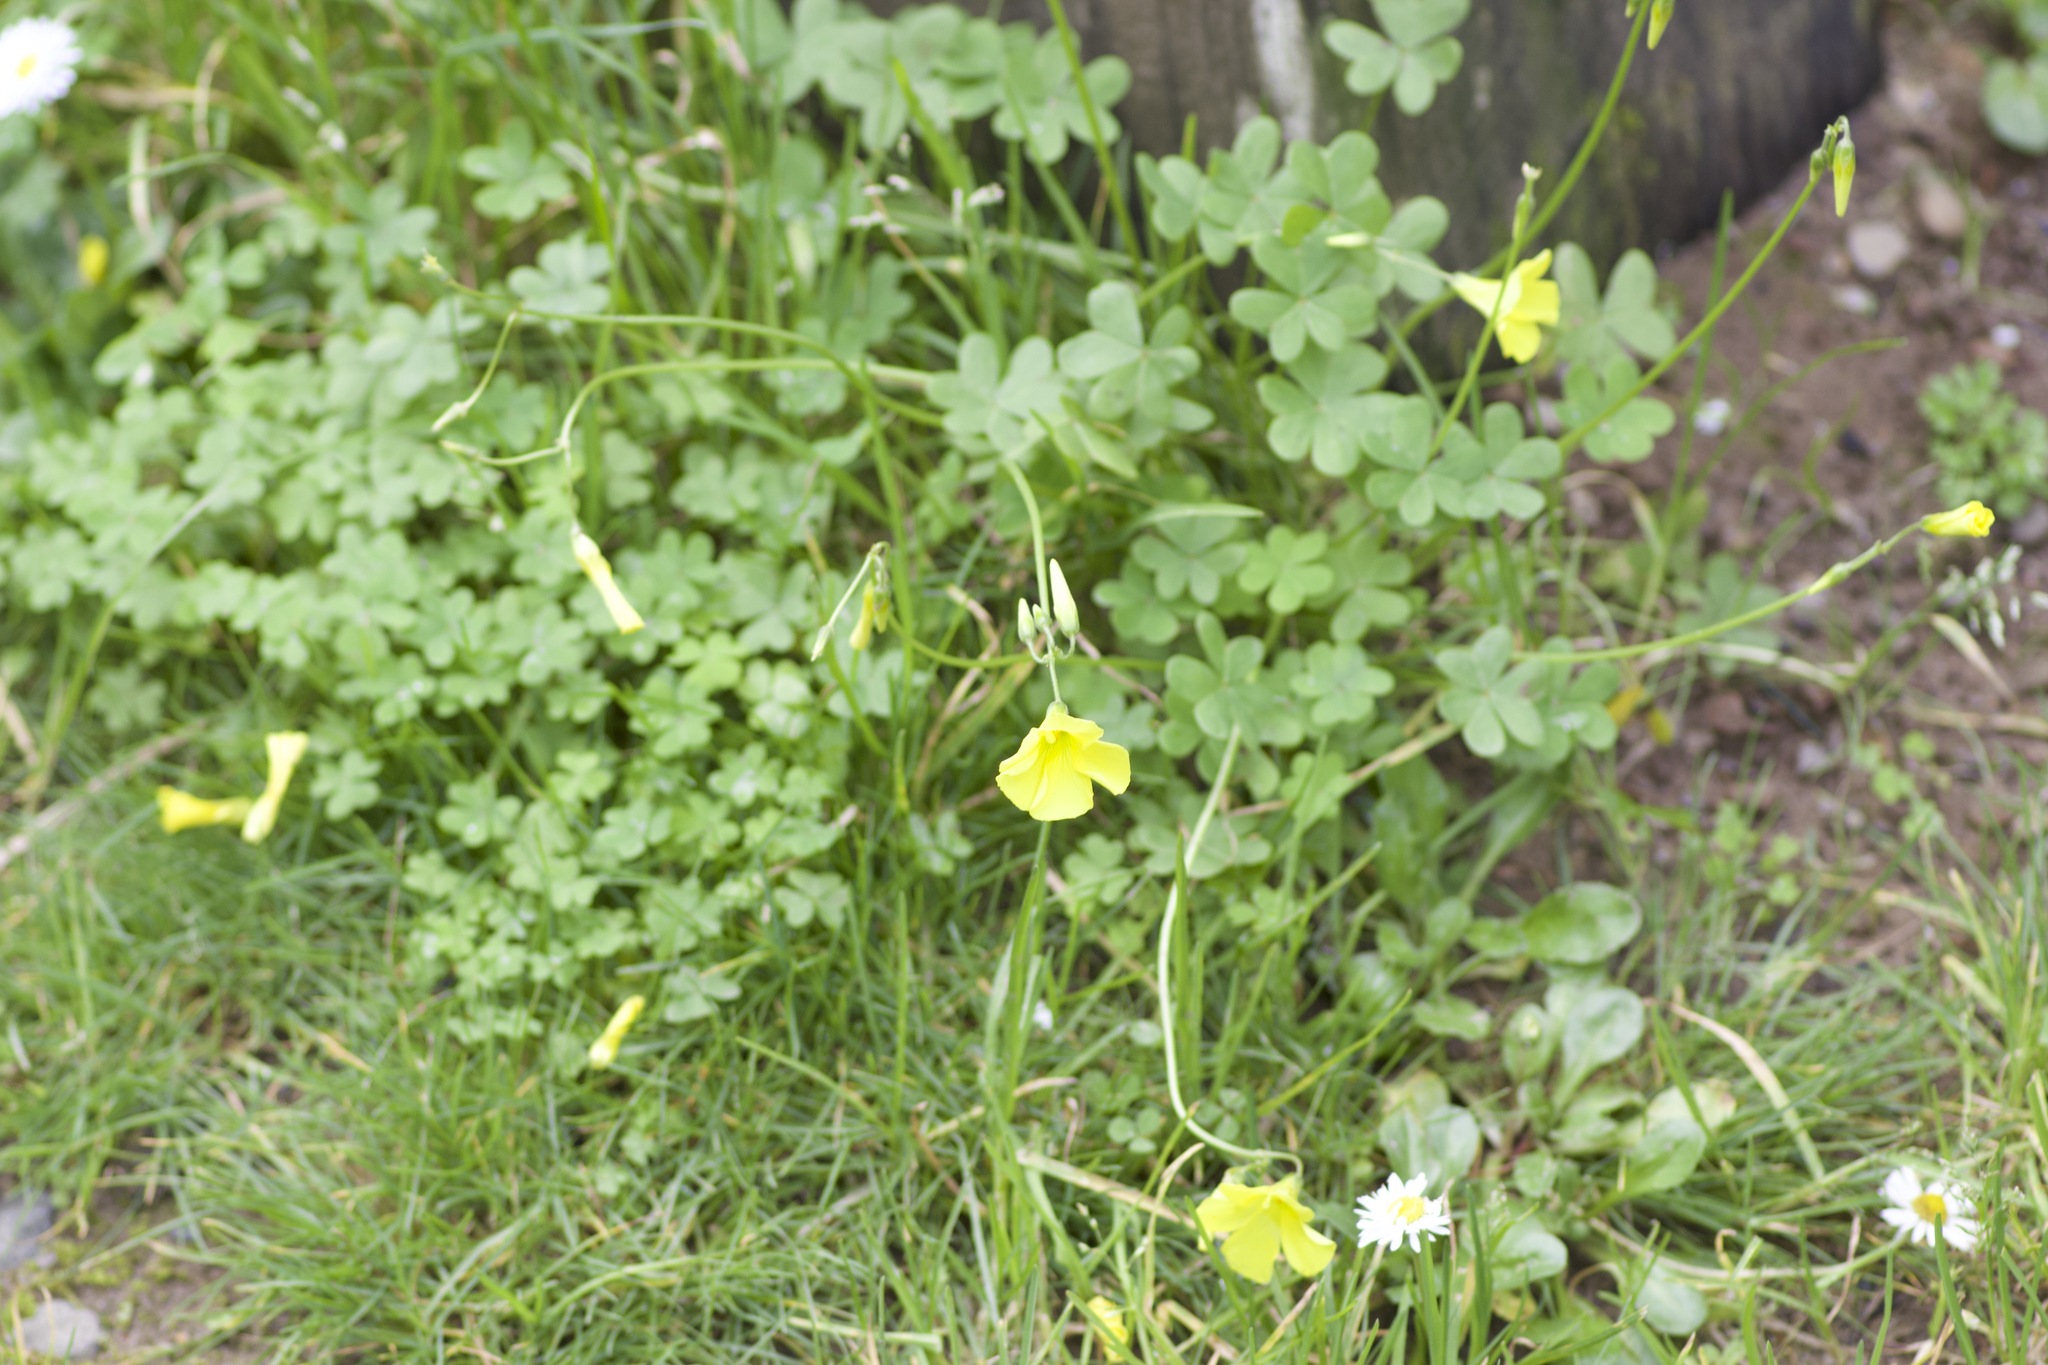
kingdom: Plantae
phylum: Tracheophyta
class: Magnoliopsida
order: Oxalidales
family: Oxalidaceae
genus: Oxalis
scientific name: Oxalis pes-caprae
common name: Bermuda-buttercup
